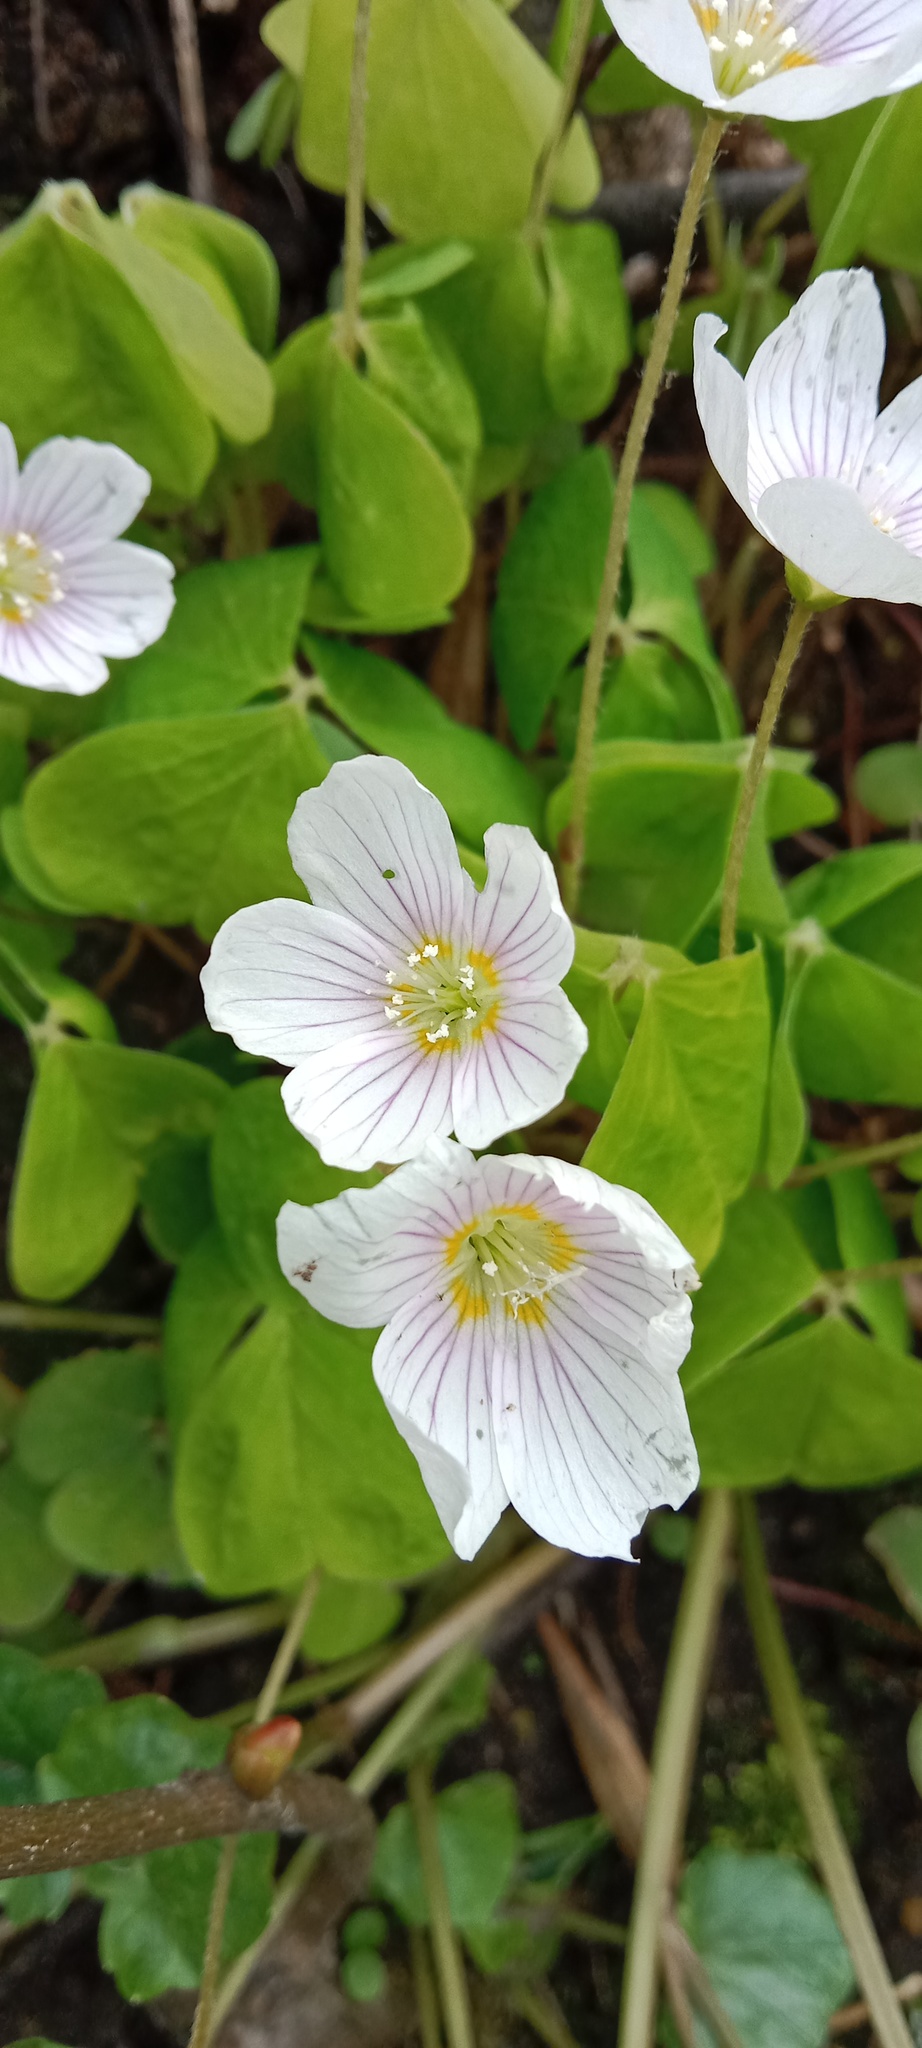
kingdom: Plantae
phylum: Tracheophyta
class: Magnoliopsida
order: Oxalidales
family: Oxalidaceae
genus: Oxalis
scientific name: Oxalis acetosella
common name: Wood-sorrel
